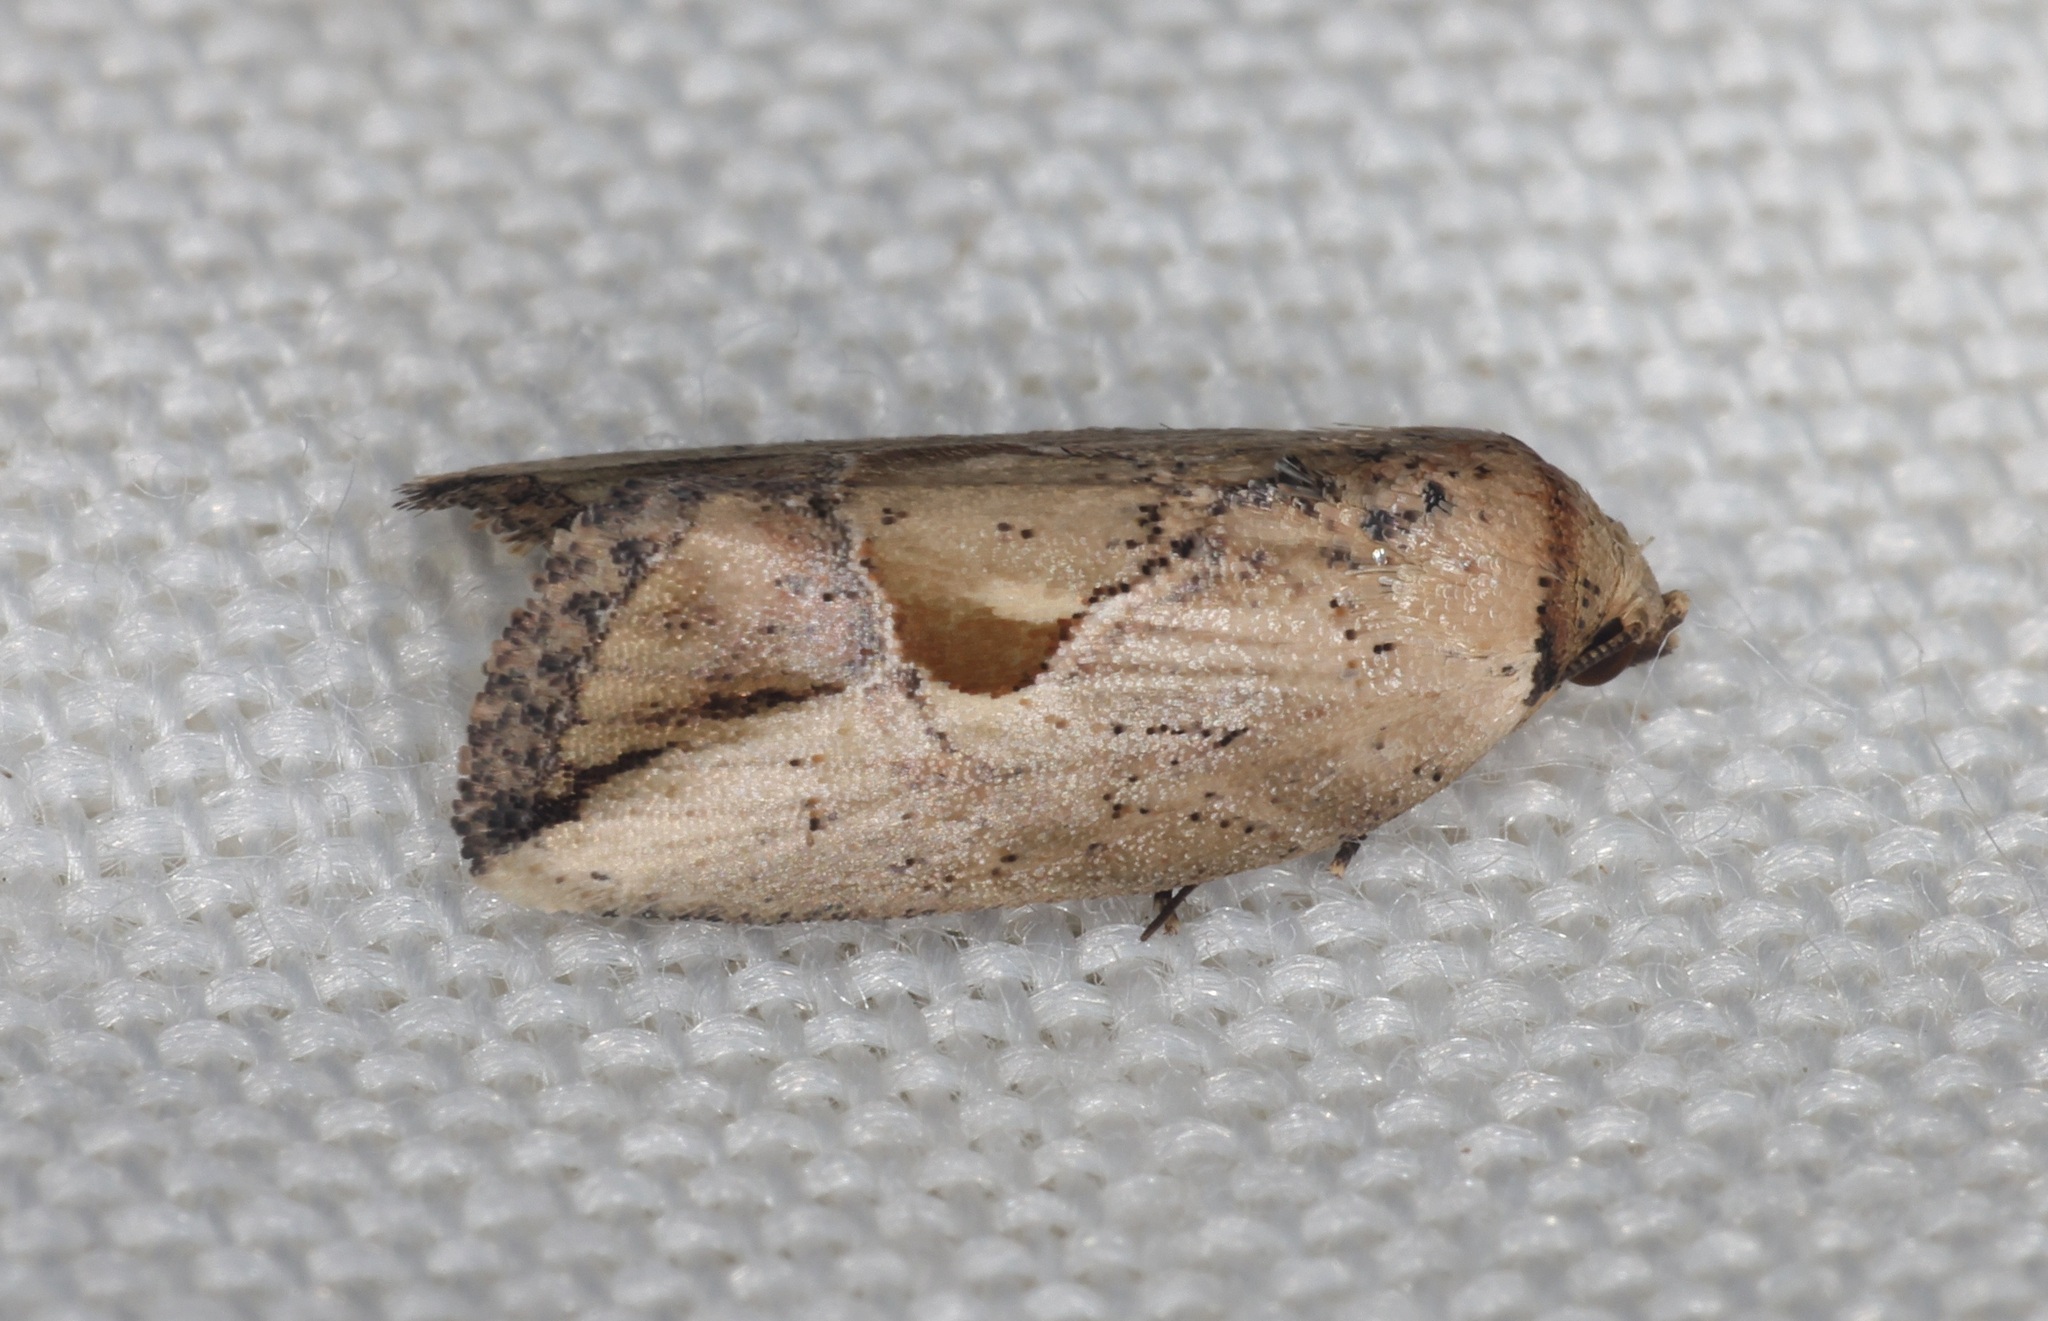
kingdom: Animalia
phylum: Arthropoda
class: Insecta
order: Lepidoptera
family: Noctuidae
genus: Strotihypera
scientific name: Strotihypera macroplaga
